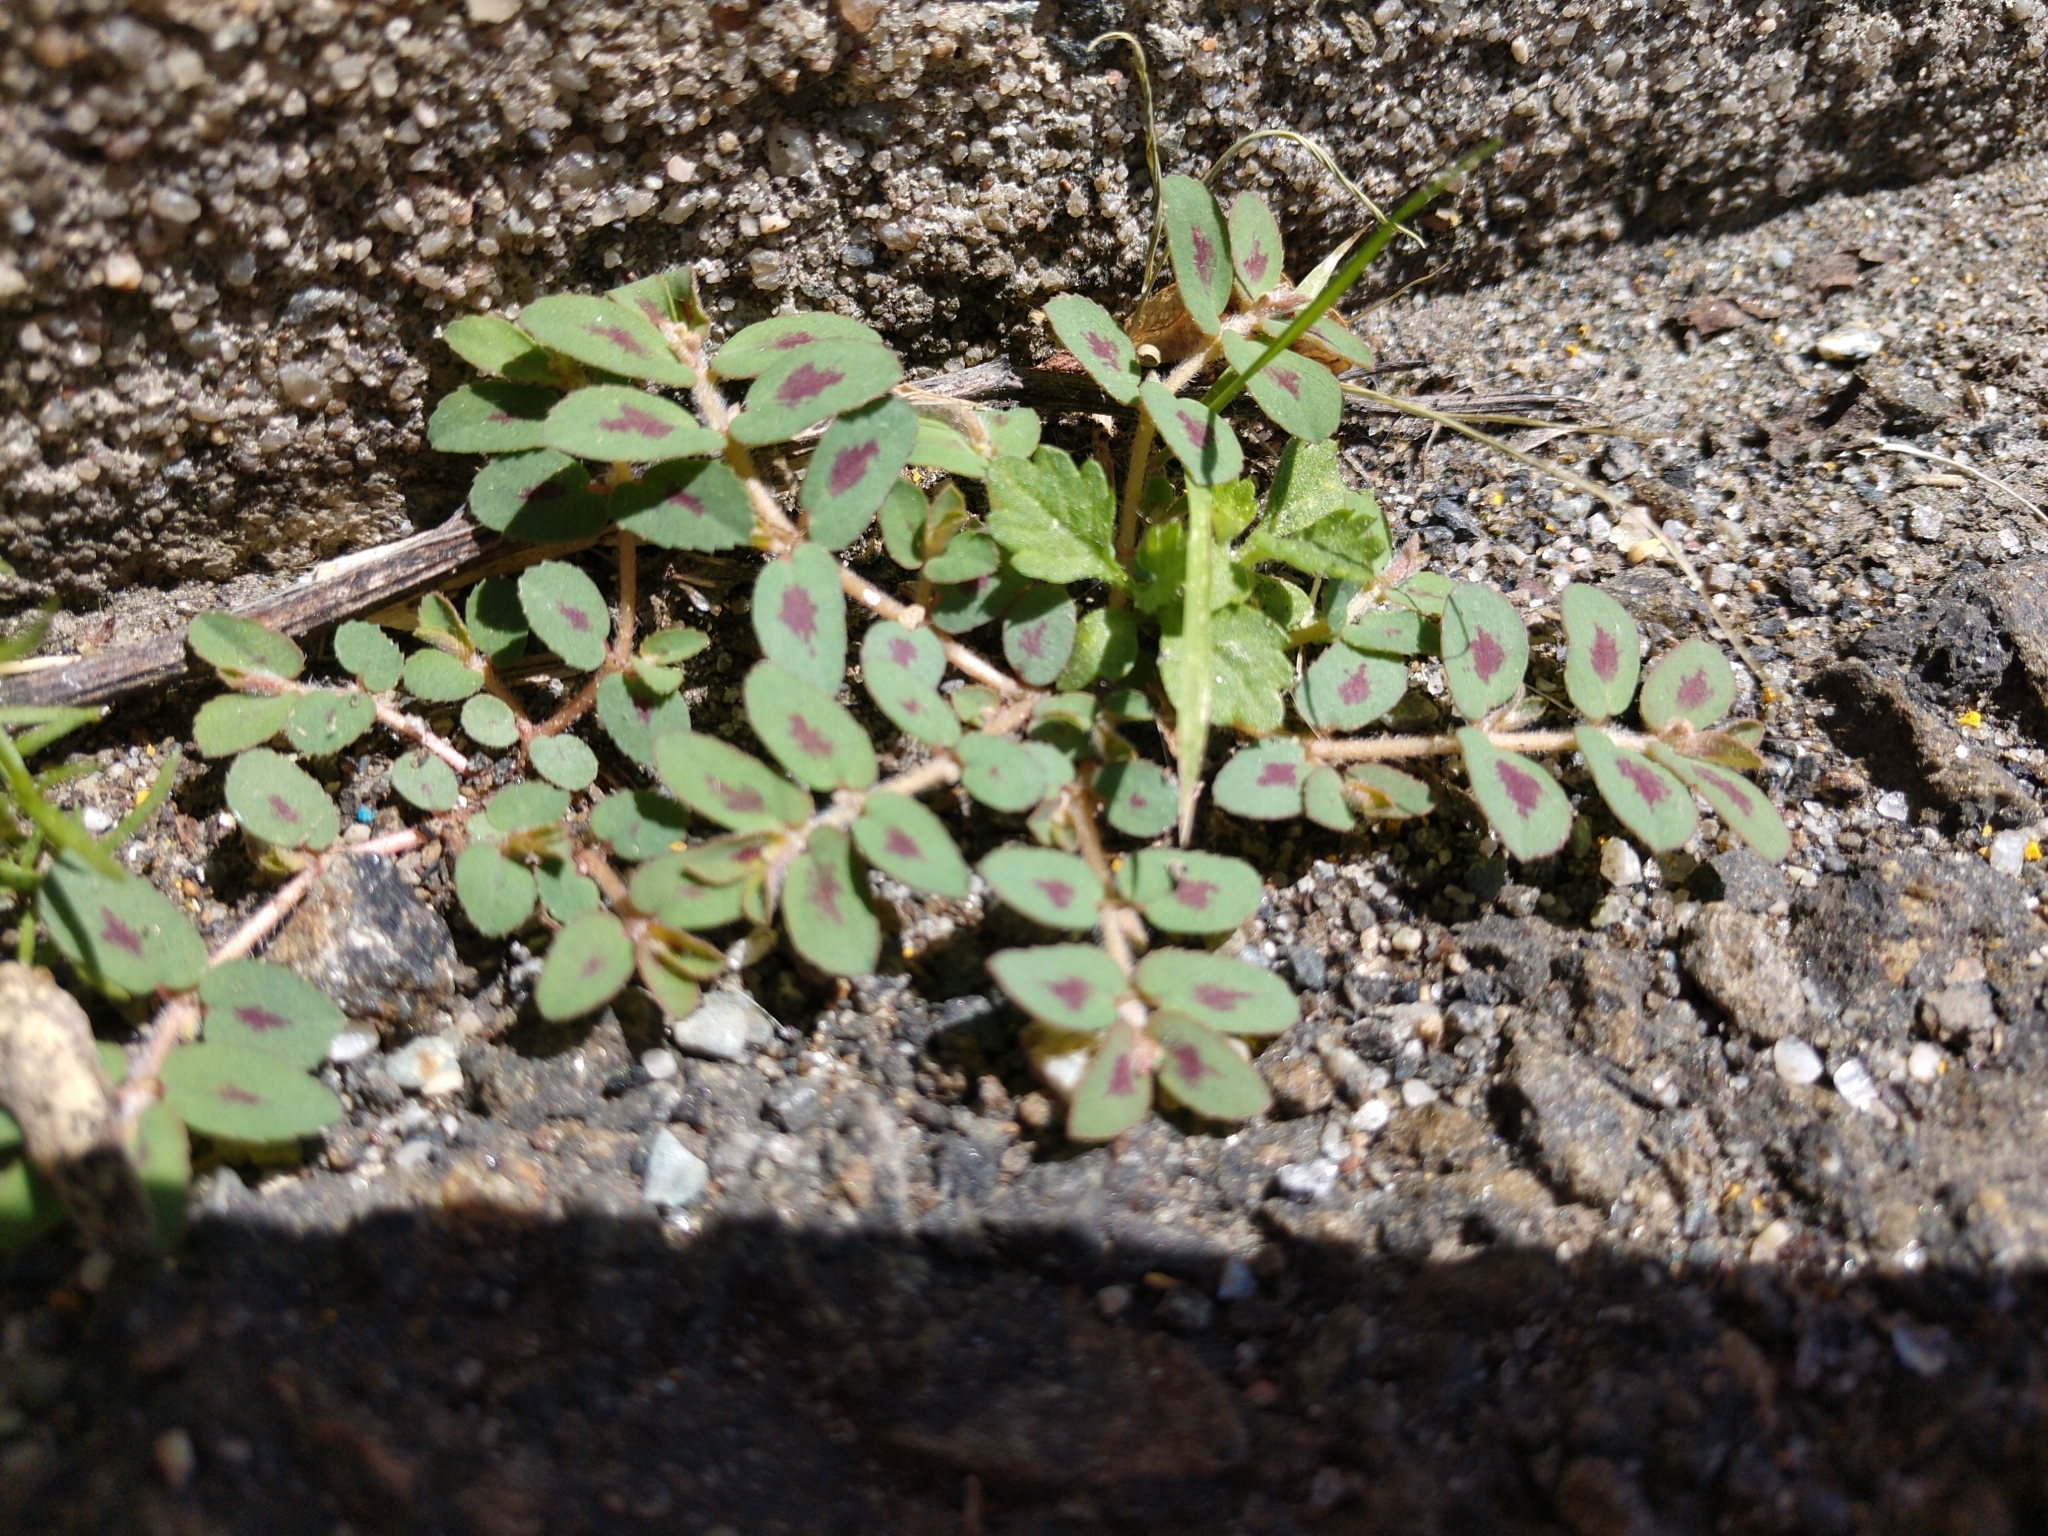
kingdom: Plantae
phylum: Tracheophyta
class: Magnoliopsida
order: Malpighiales
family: Euphorbiaceae
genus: Euphorbia
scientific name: Euphorbia maculata
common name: Spotted spurge
